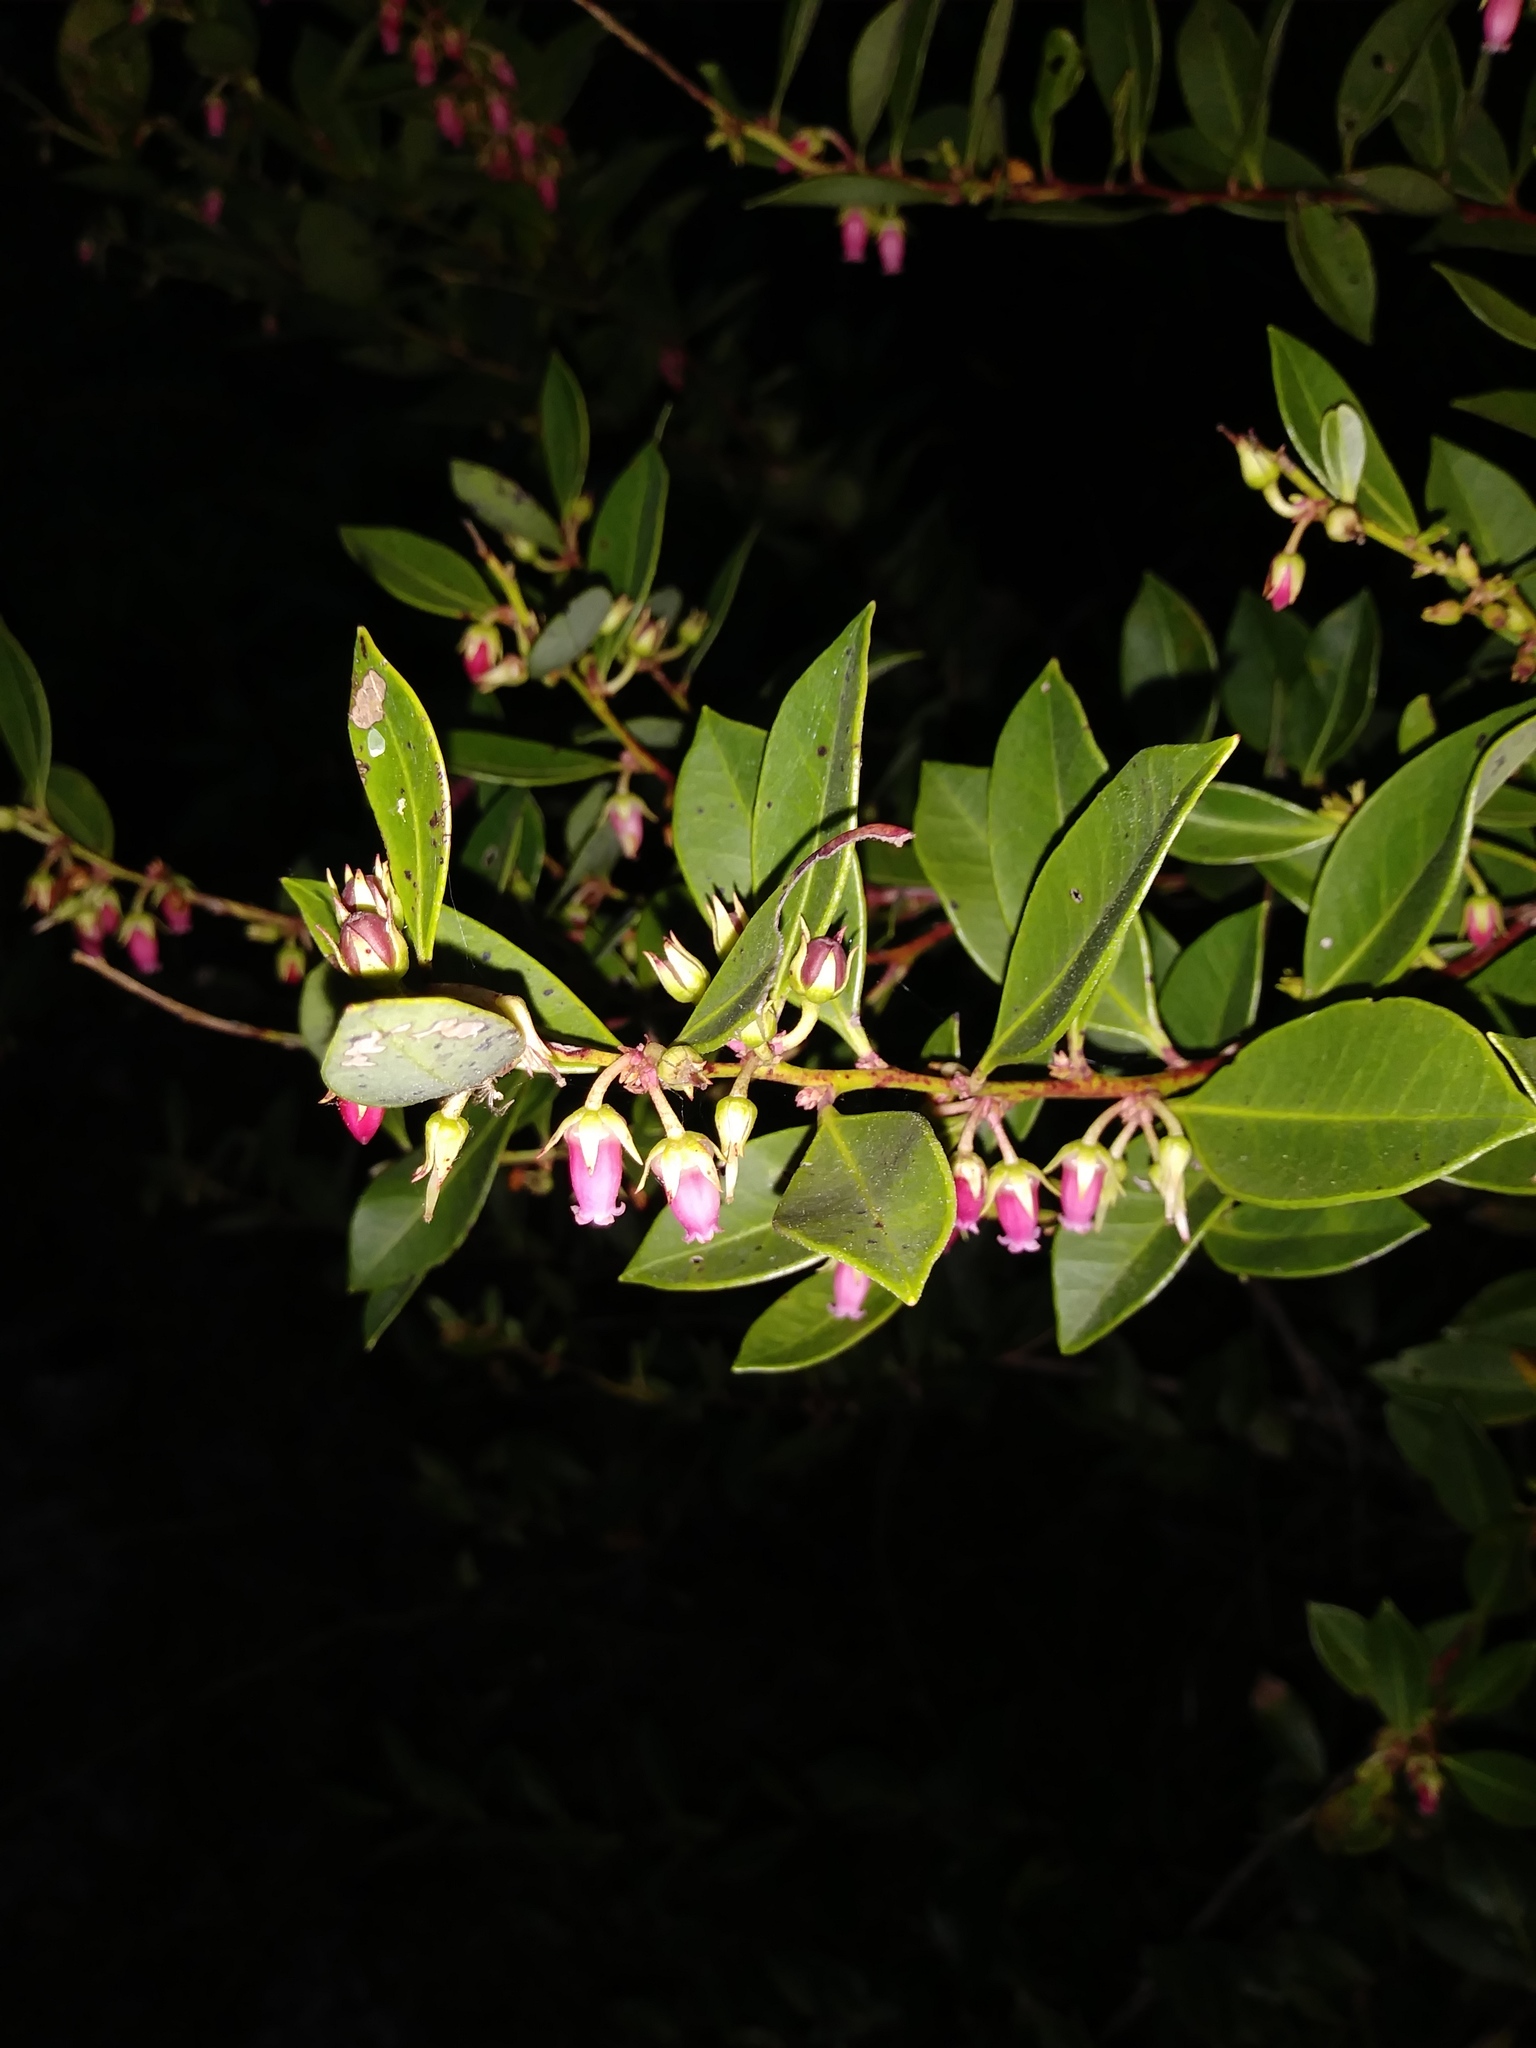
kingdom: Plantae
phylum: Tracheophyta
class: Magnoliopsida
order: Ericales
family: Ericaceae
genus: Lyonia
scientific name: Lyonia lucida
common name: Fetterbush
